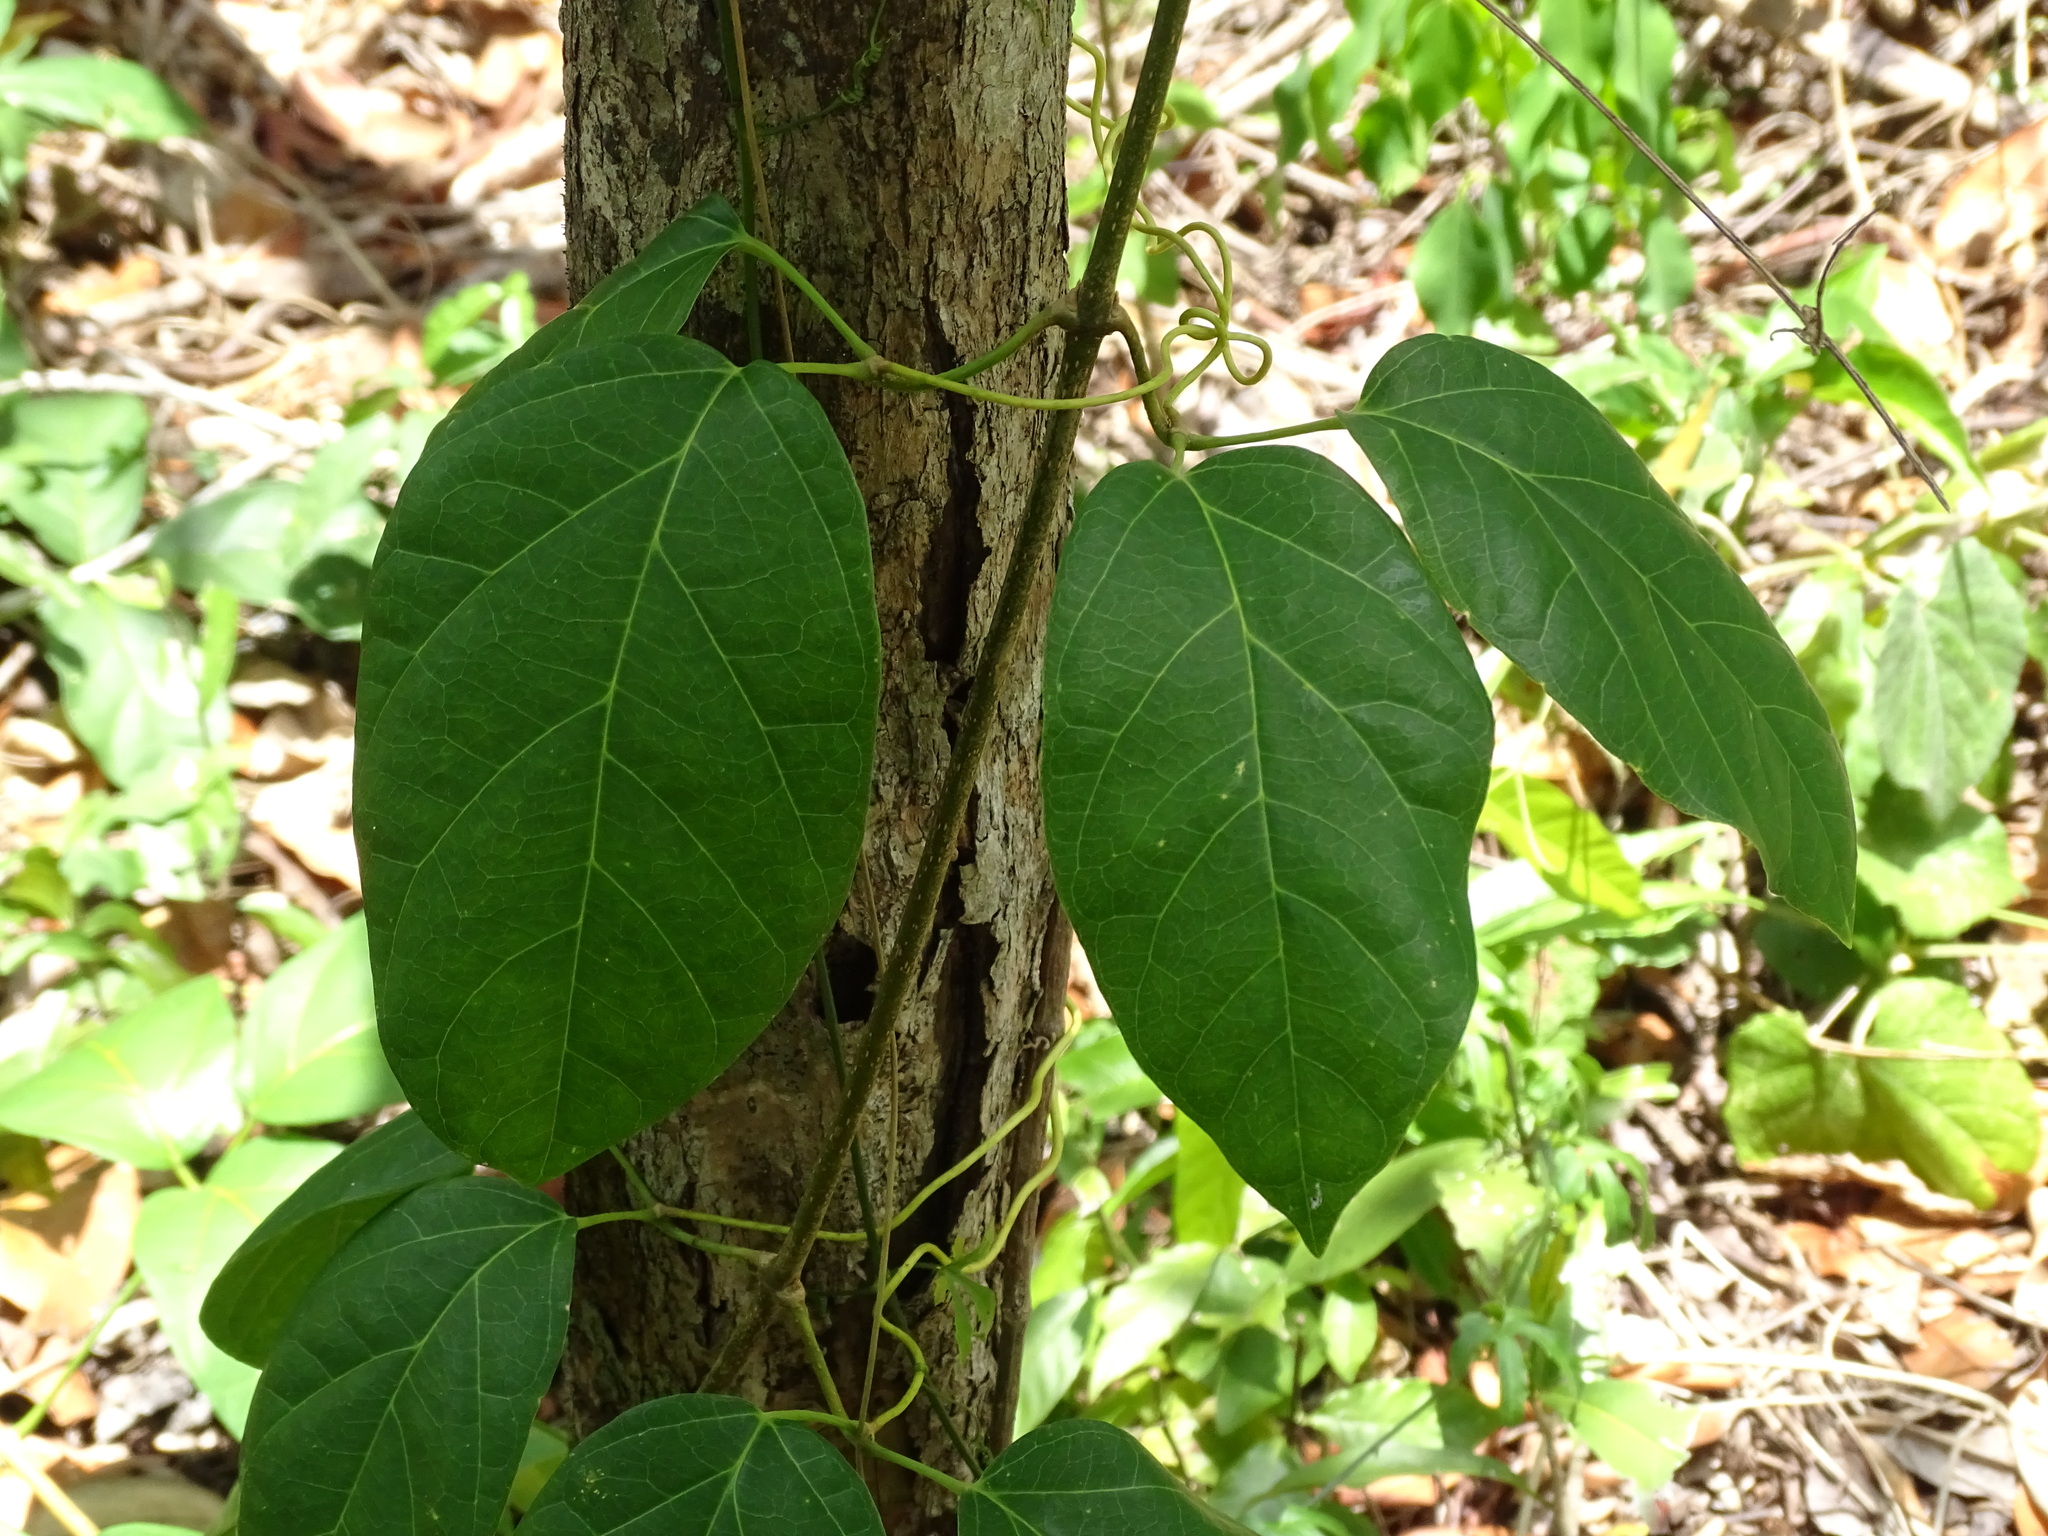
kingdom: Plantae
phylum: Tracheophyta
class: Magnoliopsida
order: Lamiales
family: Bignoniaceae
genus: Amphilophium
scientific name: Amphilophium crucigerum
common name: Monkey comb
